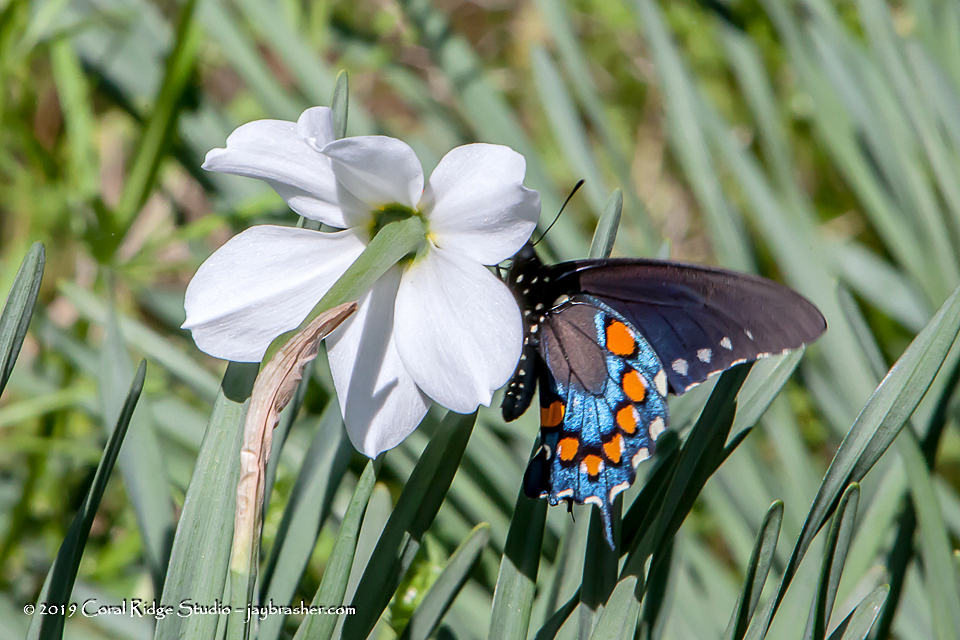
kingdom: Animalia
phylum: Arthropoda
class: Insecta
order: Lepidoptera
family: Papilionidae
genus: Battus
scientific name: Battus philenor
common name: Pipevine swallowtail
